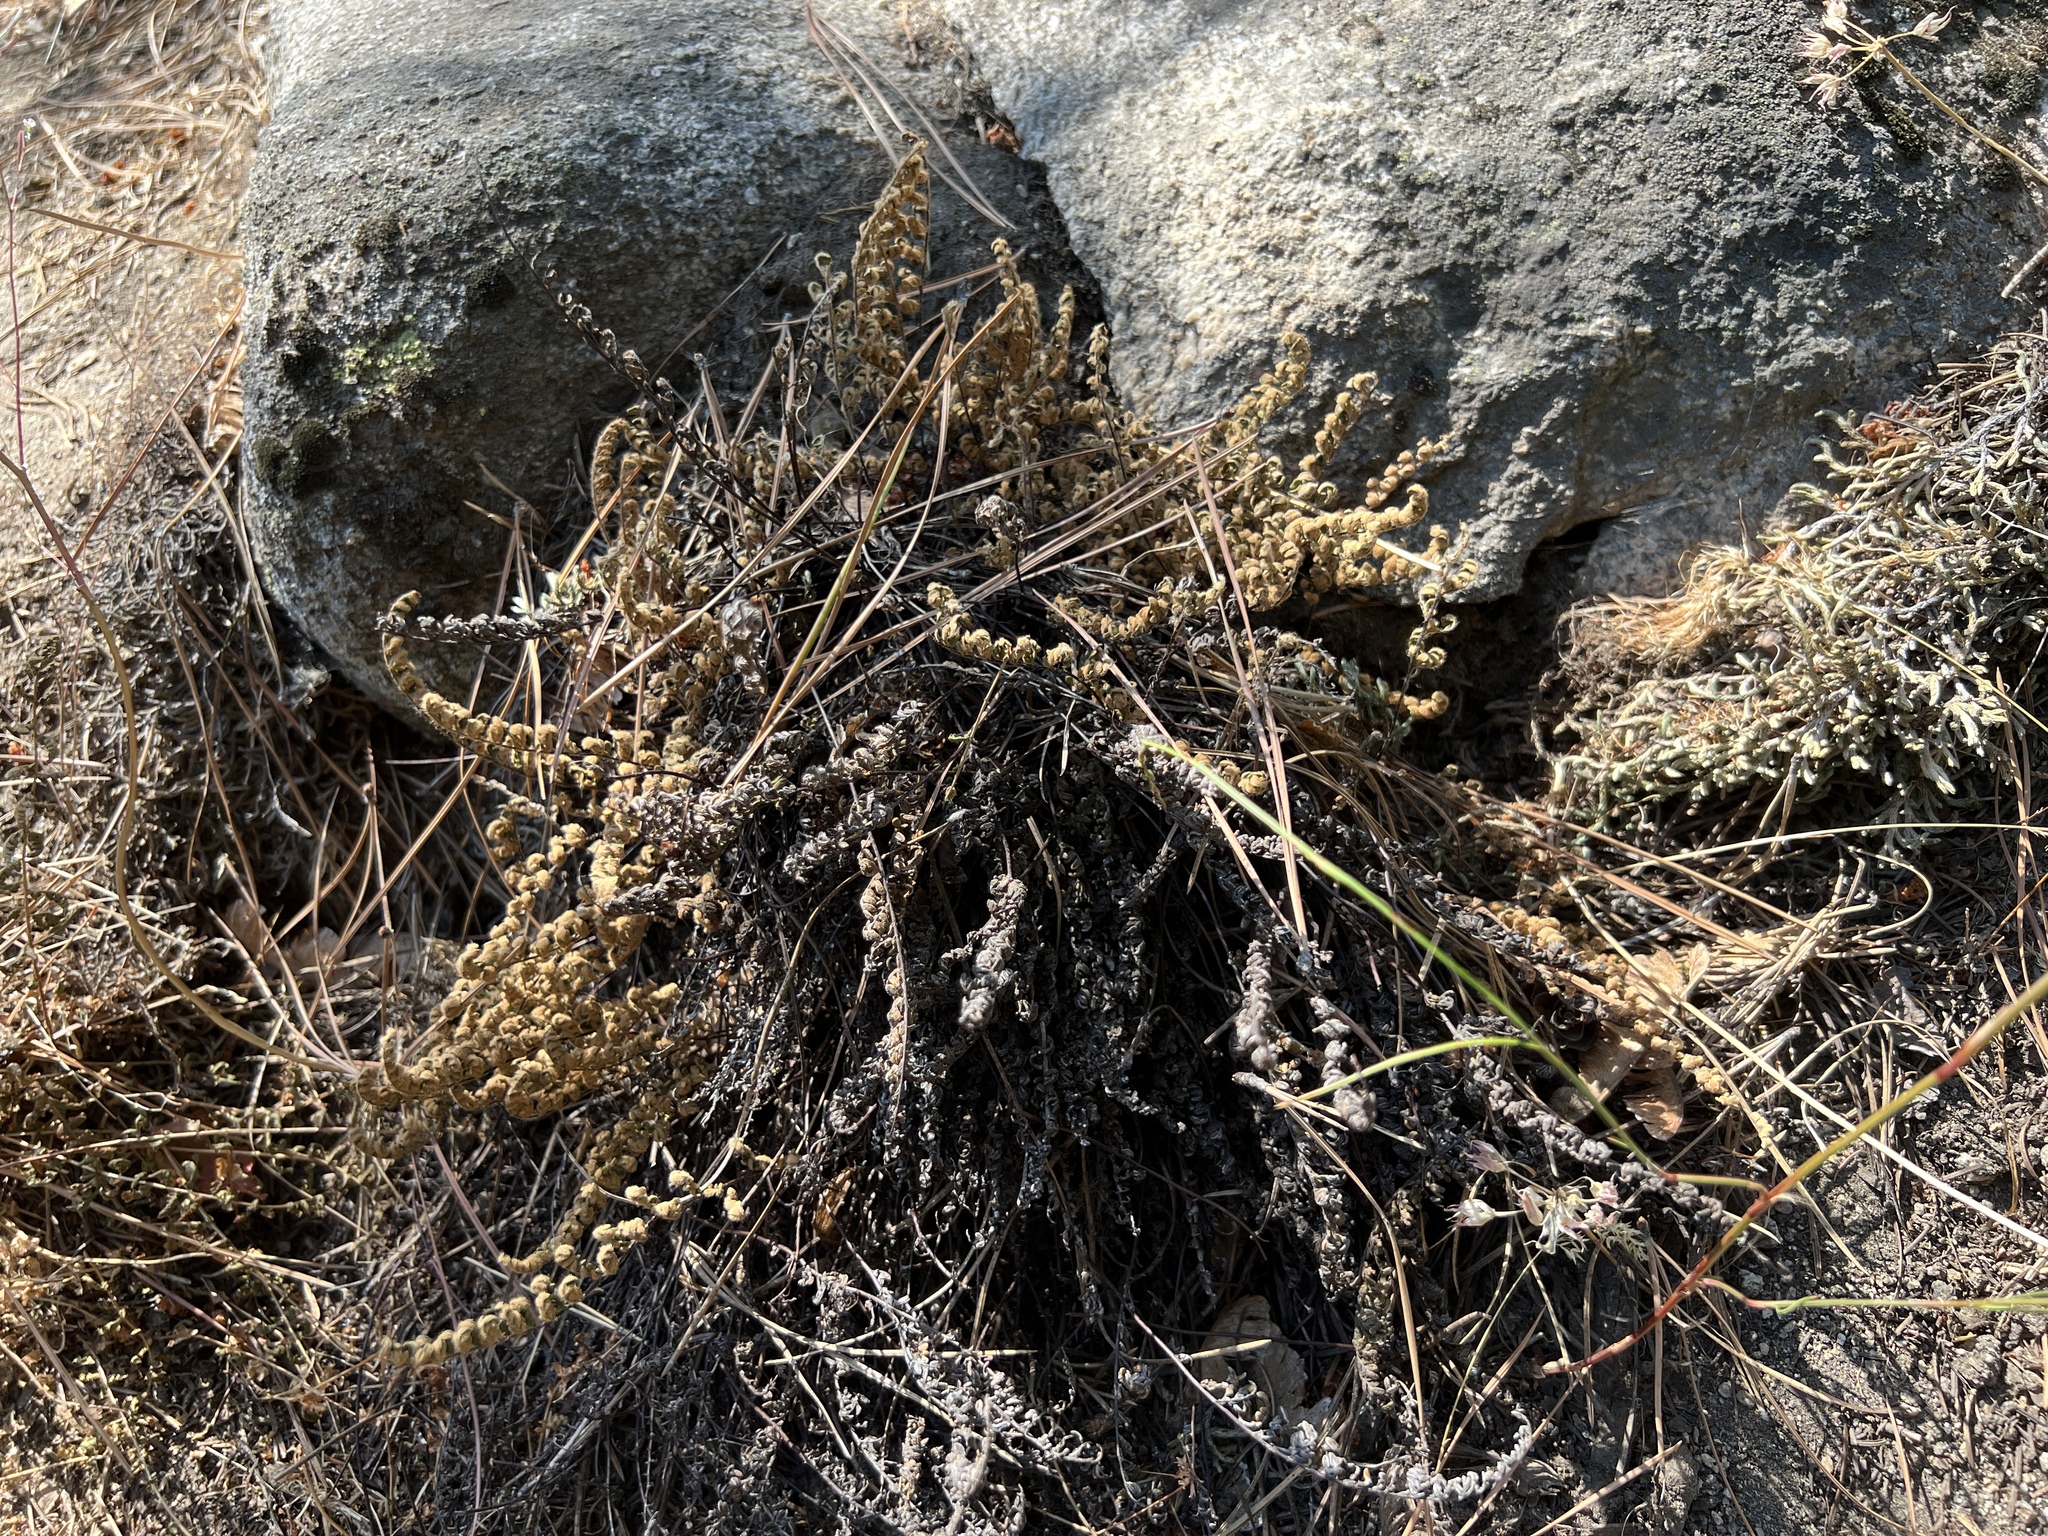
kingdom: Plantae
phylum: Tracheophyta
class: Polypodiopsida
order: Polypodiales
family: Pteridaceae
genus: Myriopteris
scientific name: Myriopteris gracillima
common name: Lace fern
